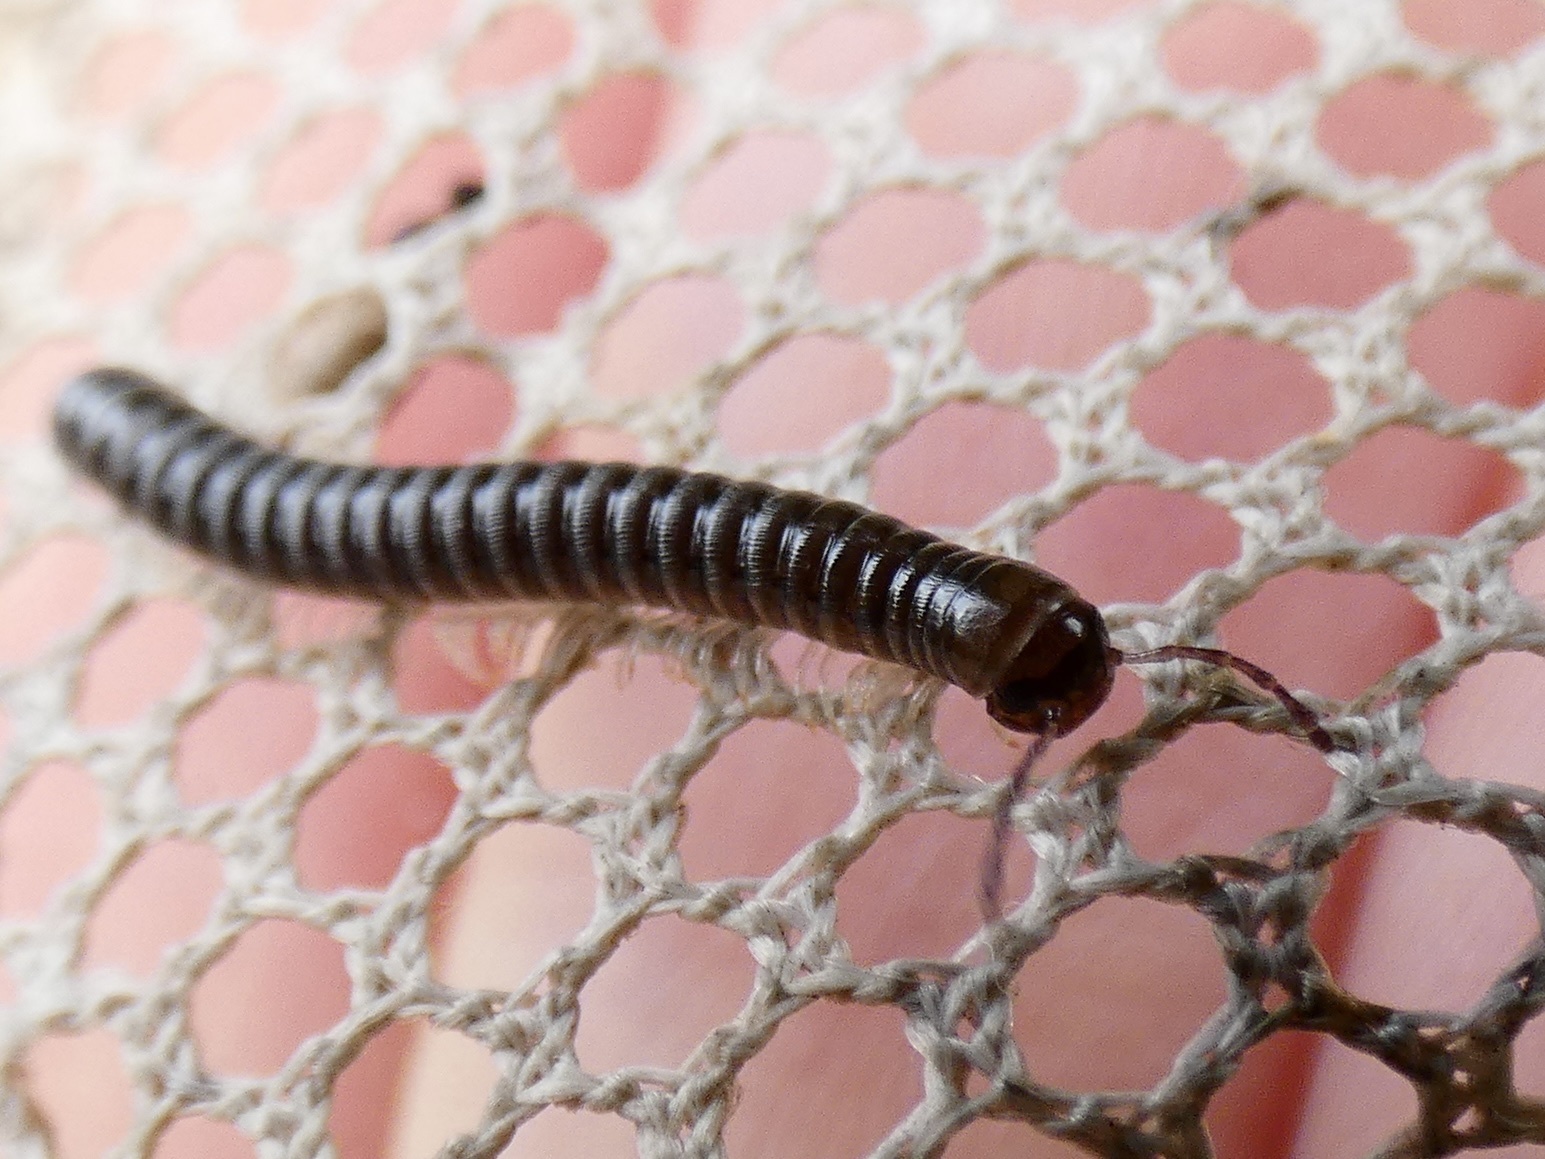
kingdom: Animalia
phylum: Arthropoda
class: Diplopoda
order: Julida
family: Julidae
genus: Tachypodoiulus
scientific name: Tachypodoiulus niger
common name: White-legged snake millipede
